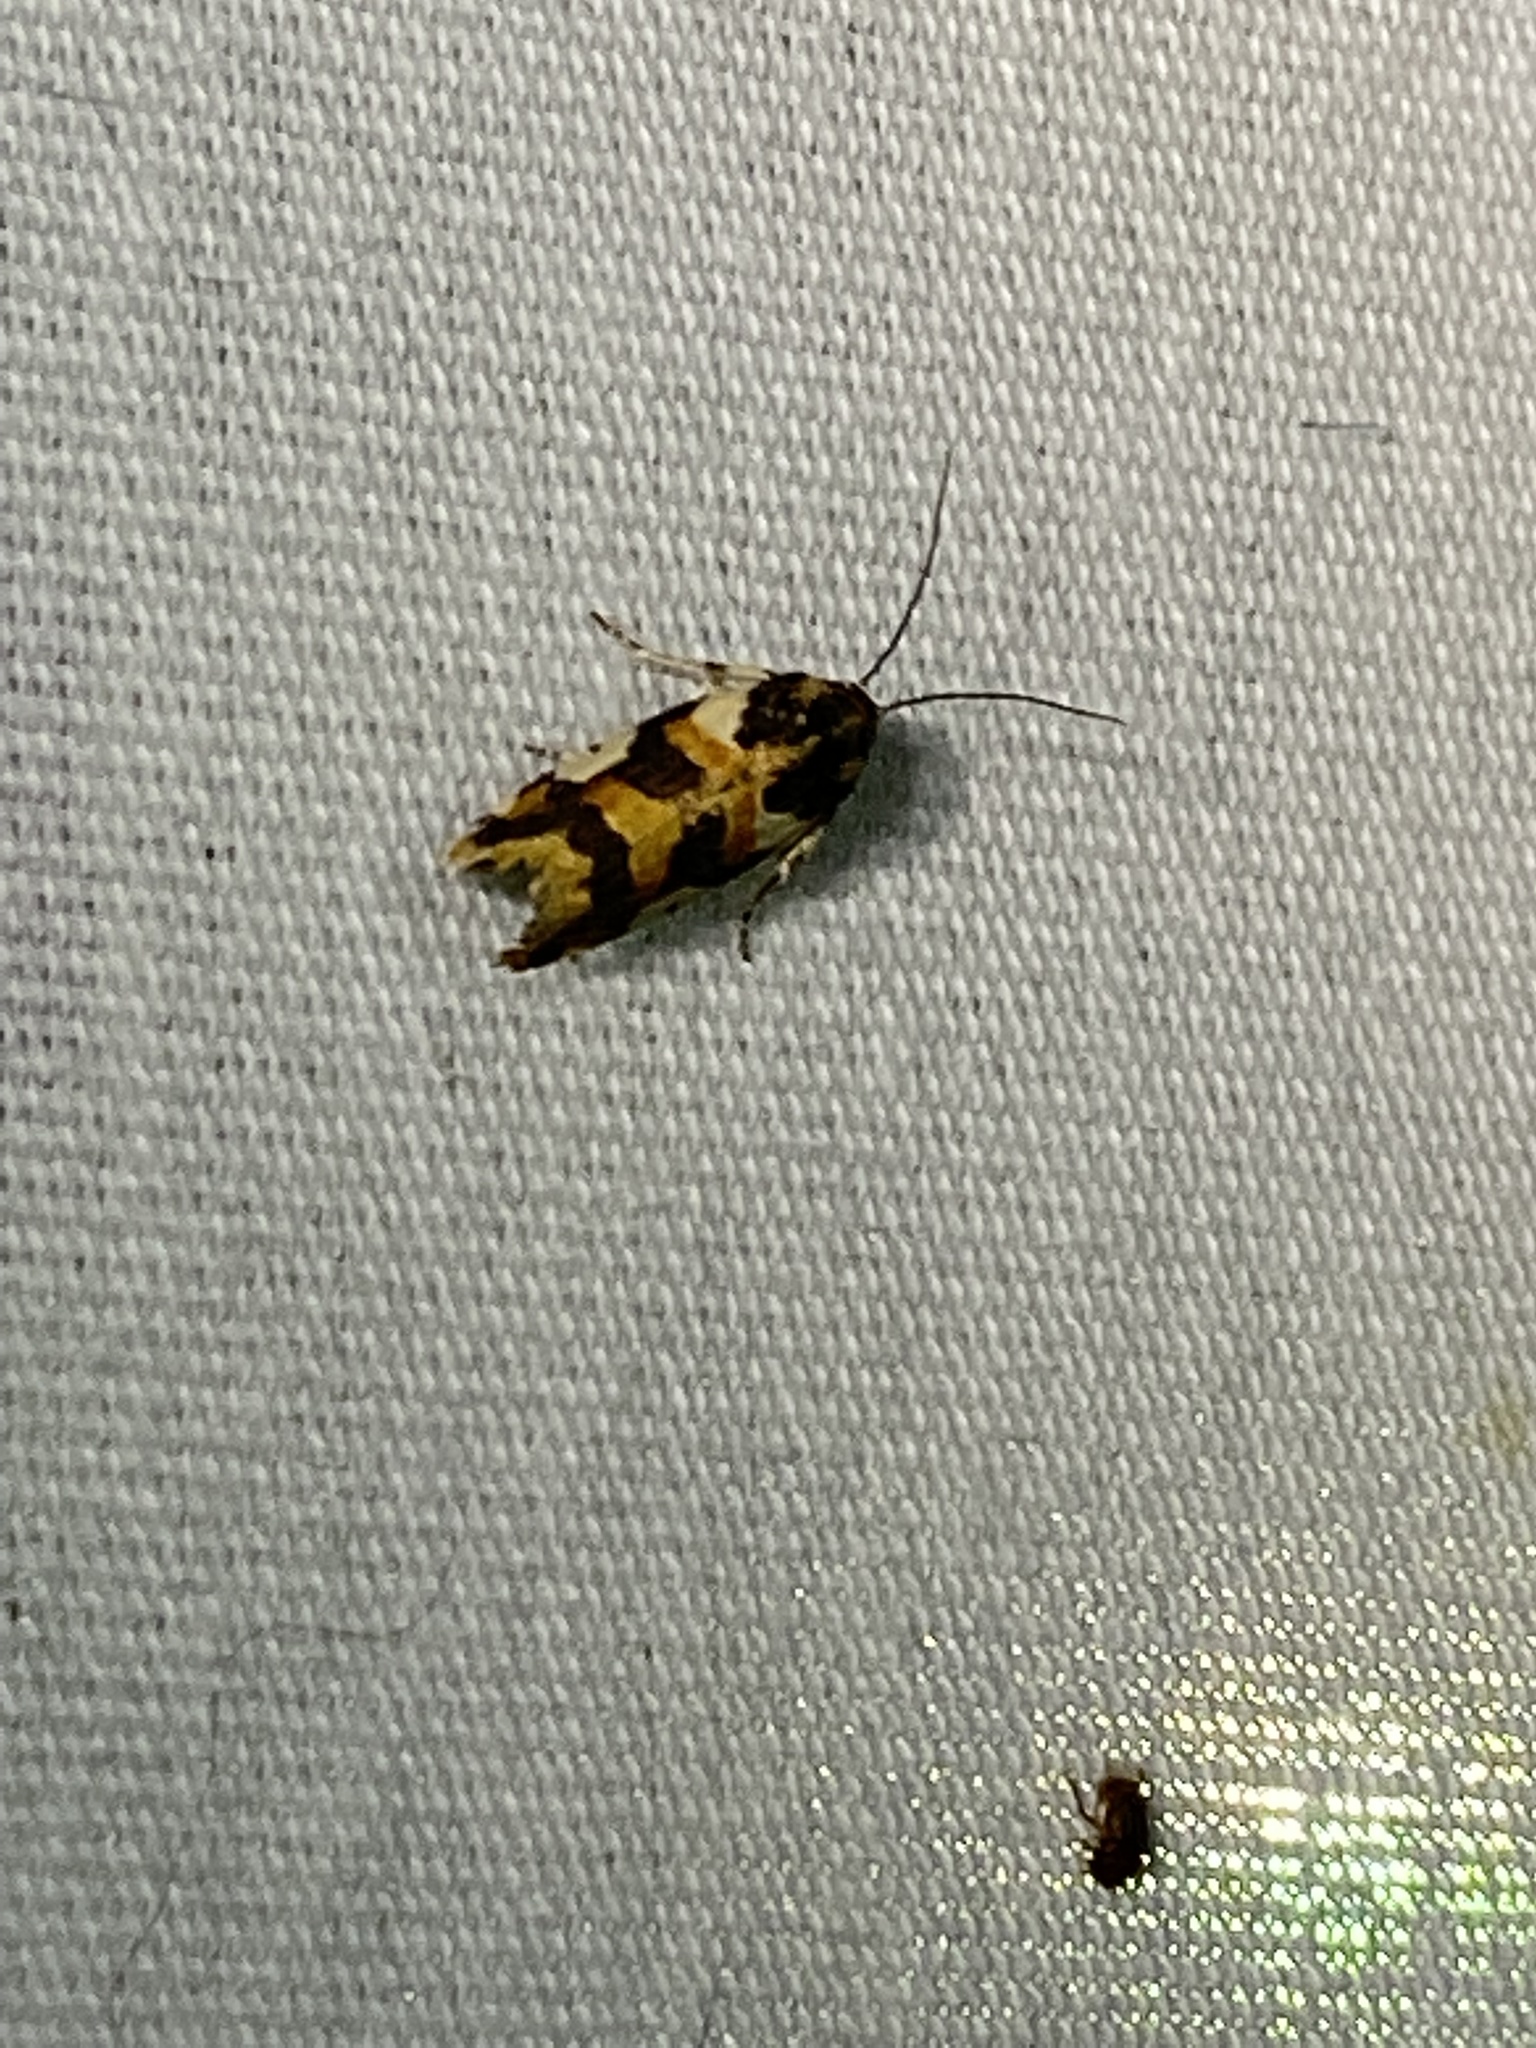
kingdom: Animalia
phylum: Arthropoda
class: Insecta
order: Lepidoptera
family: Noctuidae
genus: Acontia
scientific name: Acontia dama
